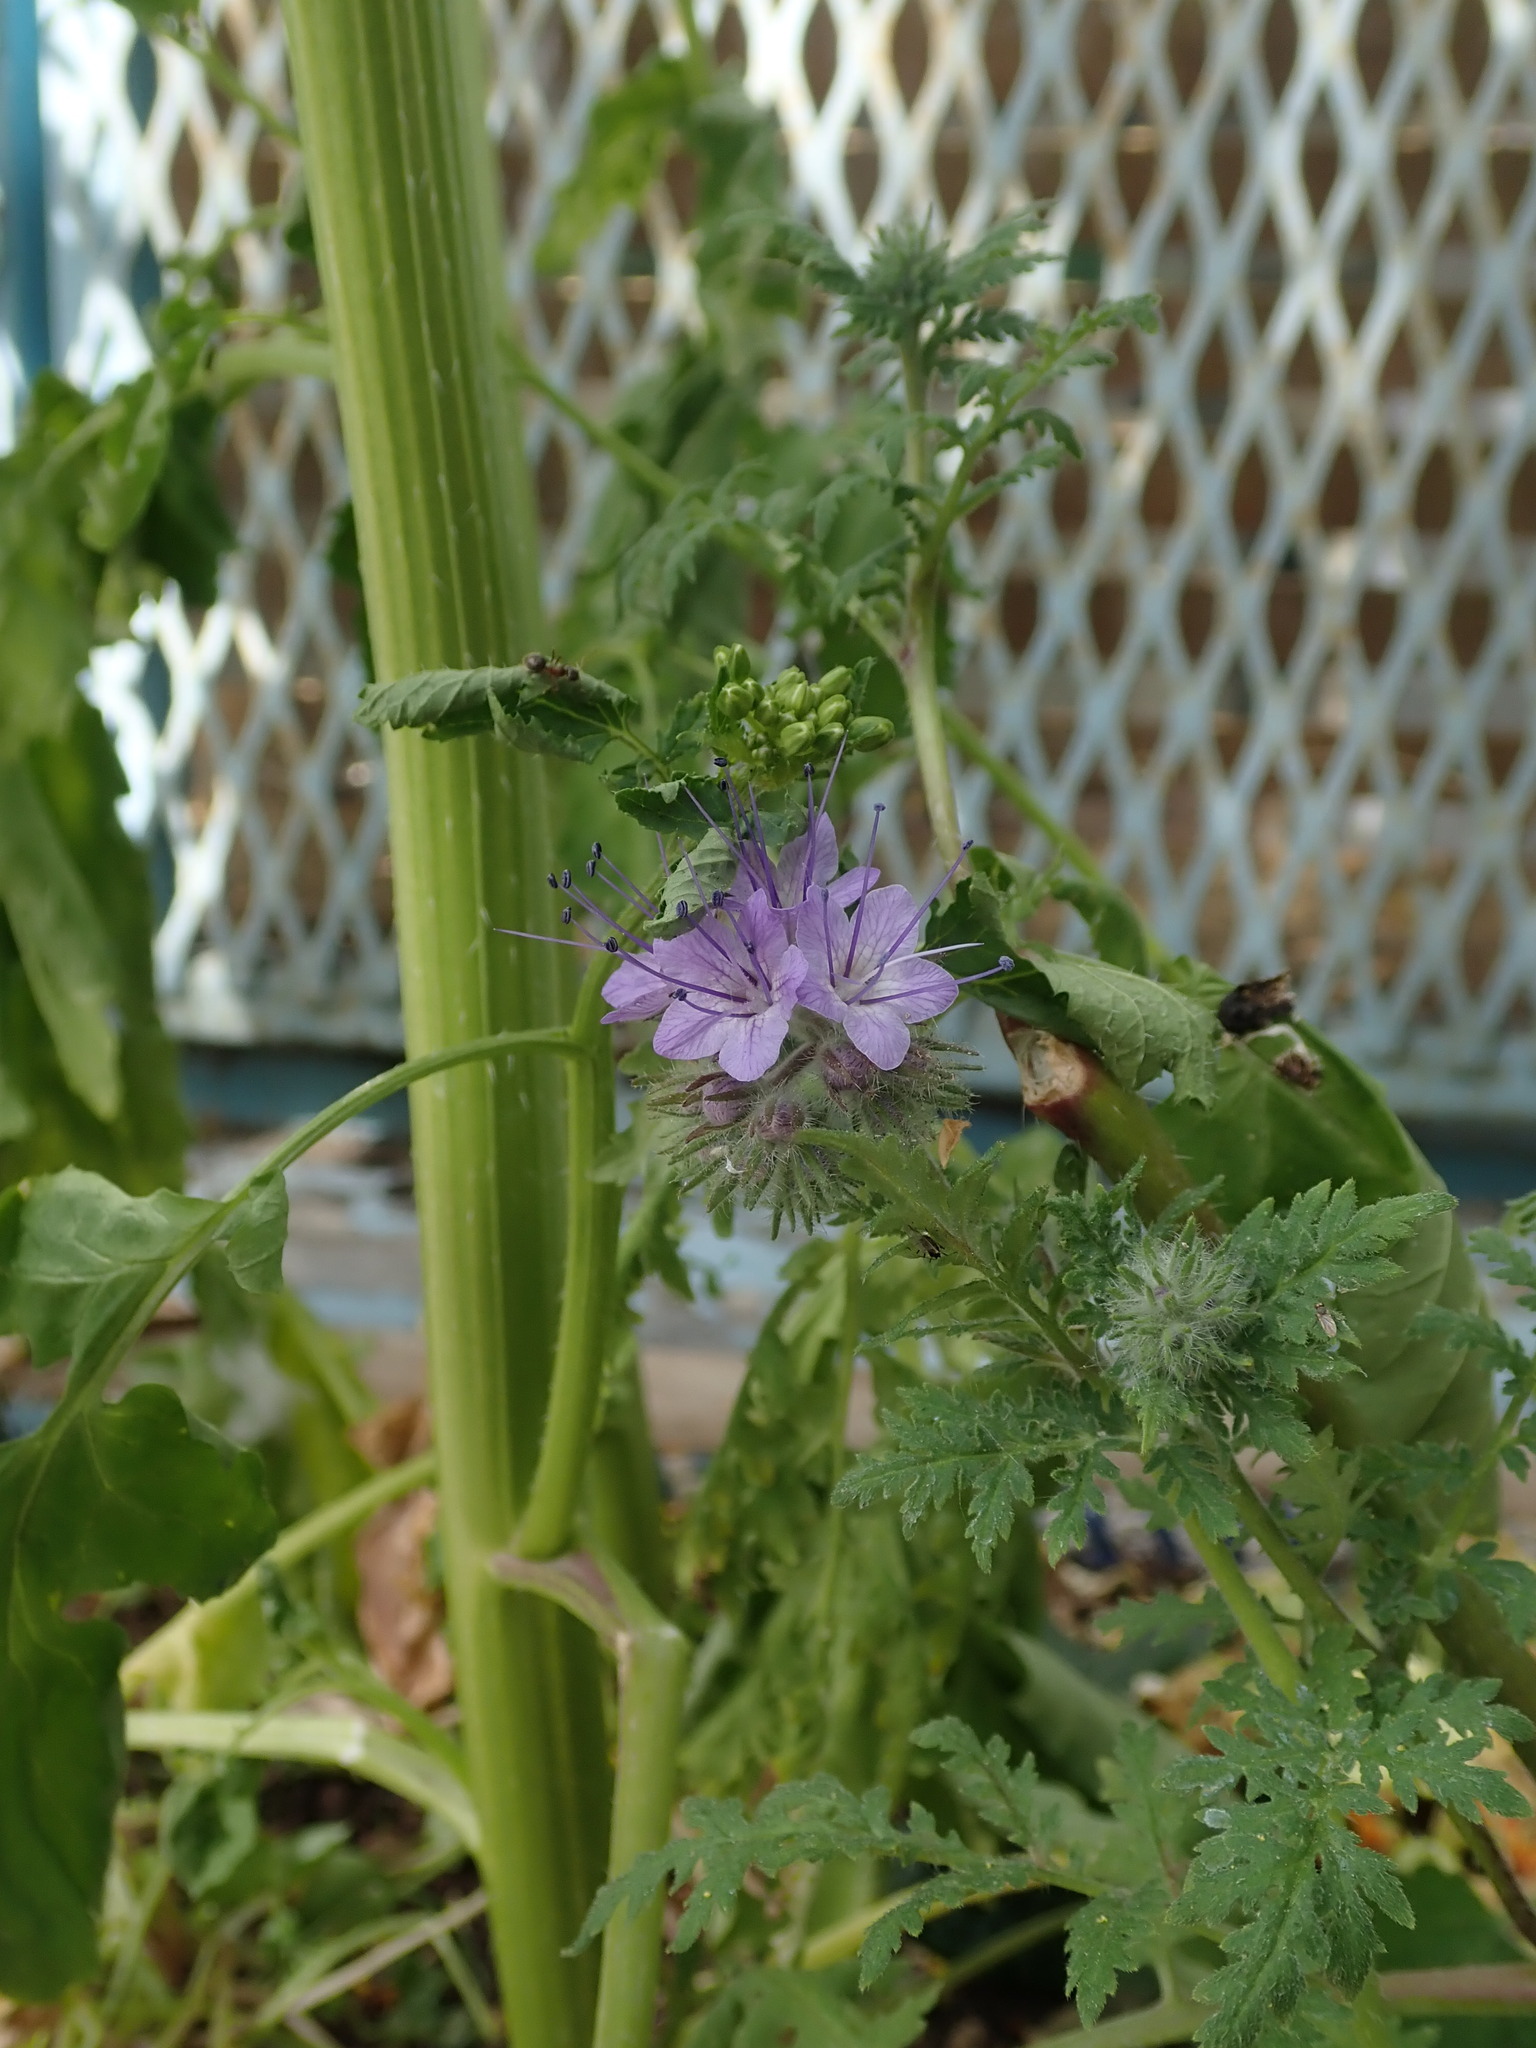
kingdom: Plantae
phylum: Tracheophyta
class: Magnoliopsida
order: Boraginales
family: Hydrophyllaceae
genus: Phacelia
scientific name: Phacelia tanacetifolia
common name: Phacelia
